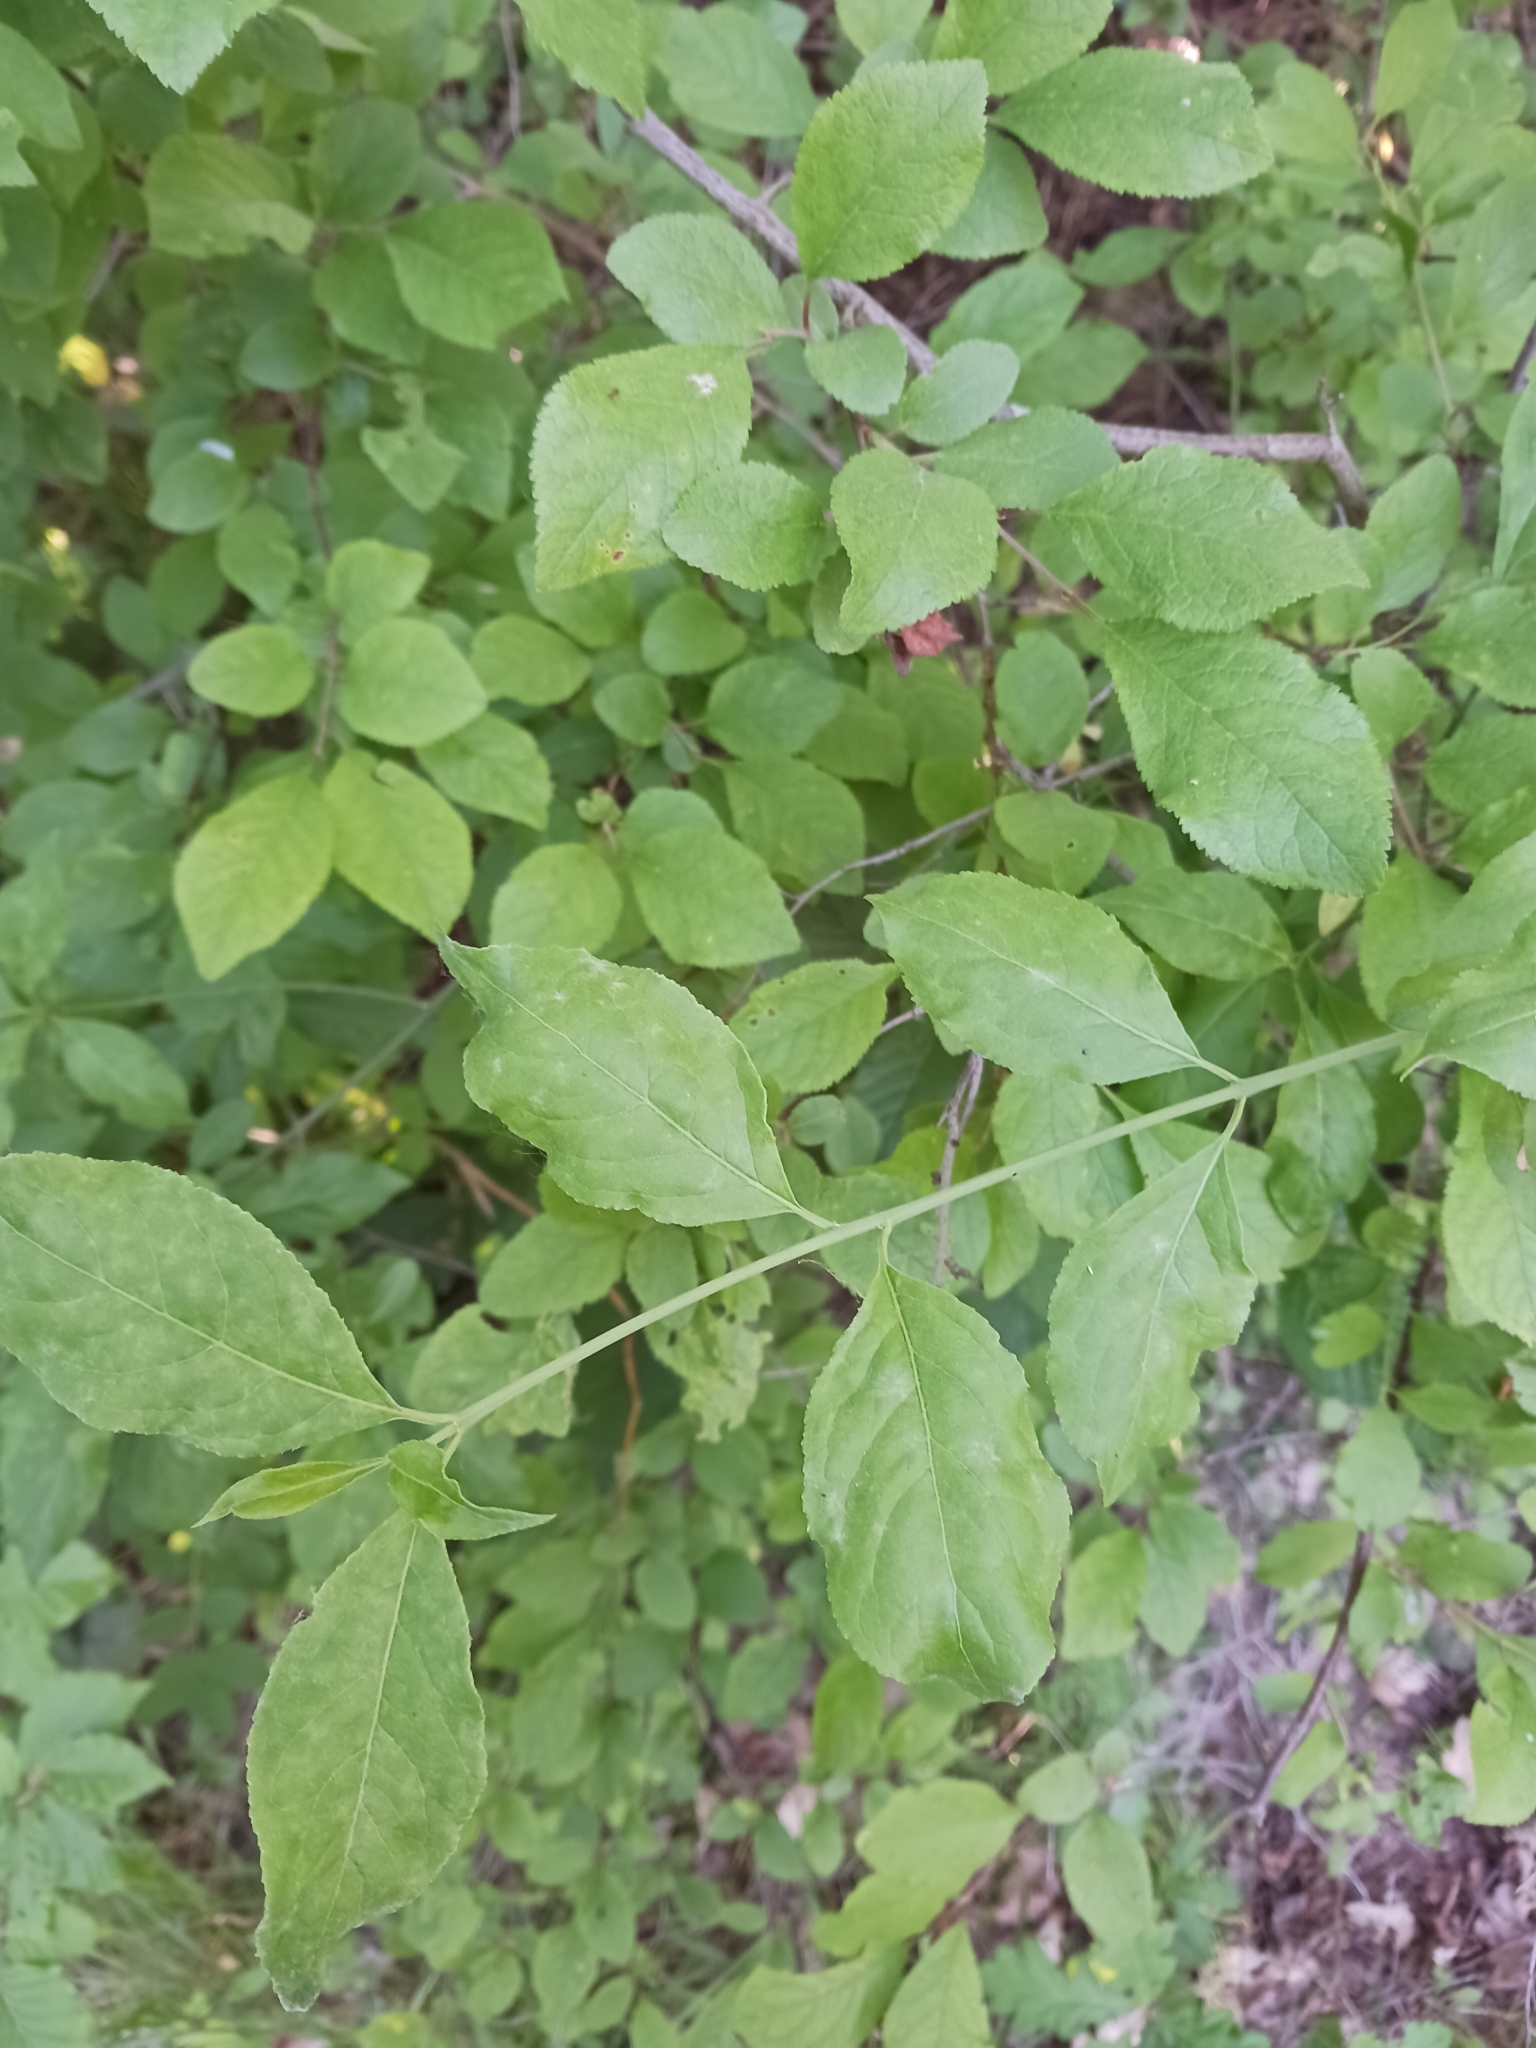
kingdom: Fungi
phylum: Ascomycota
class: Leotiomycetes
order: Helotiales
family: Erysiphaceae
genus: Erysiphe
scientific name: Erysiphe euonymi
